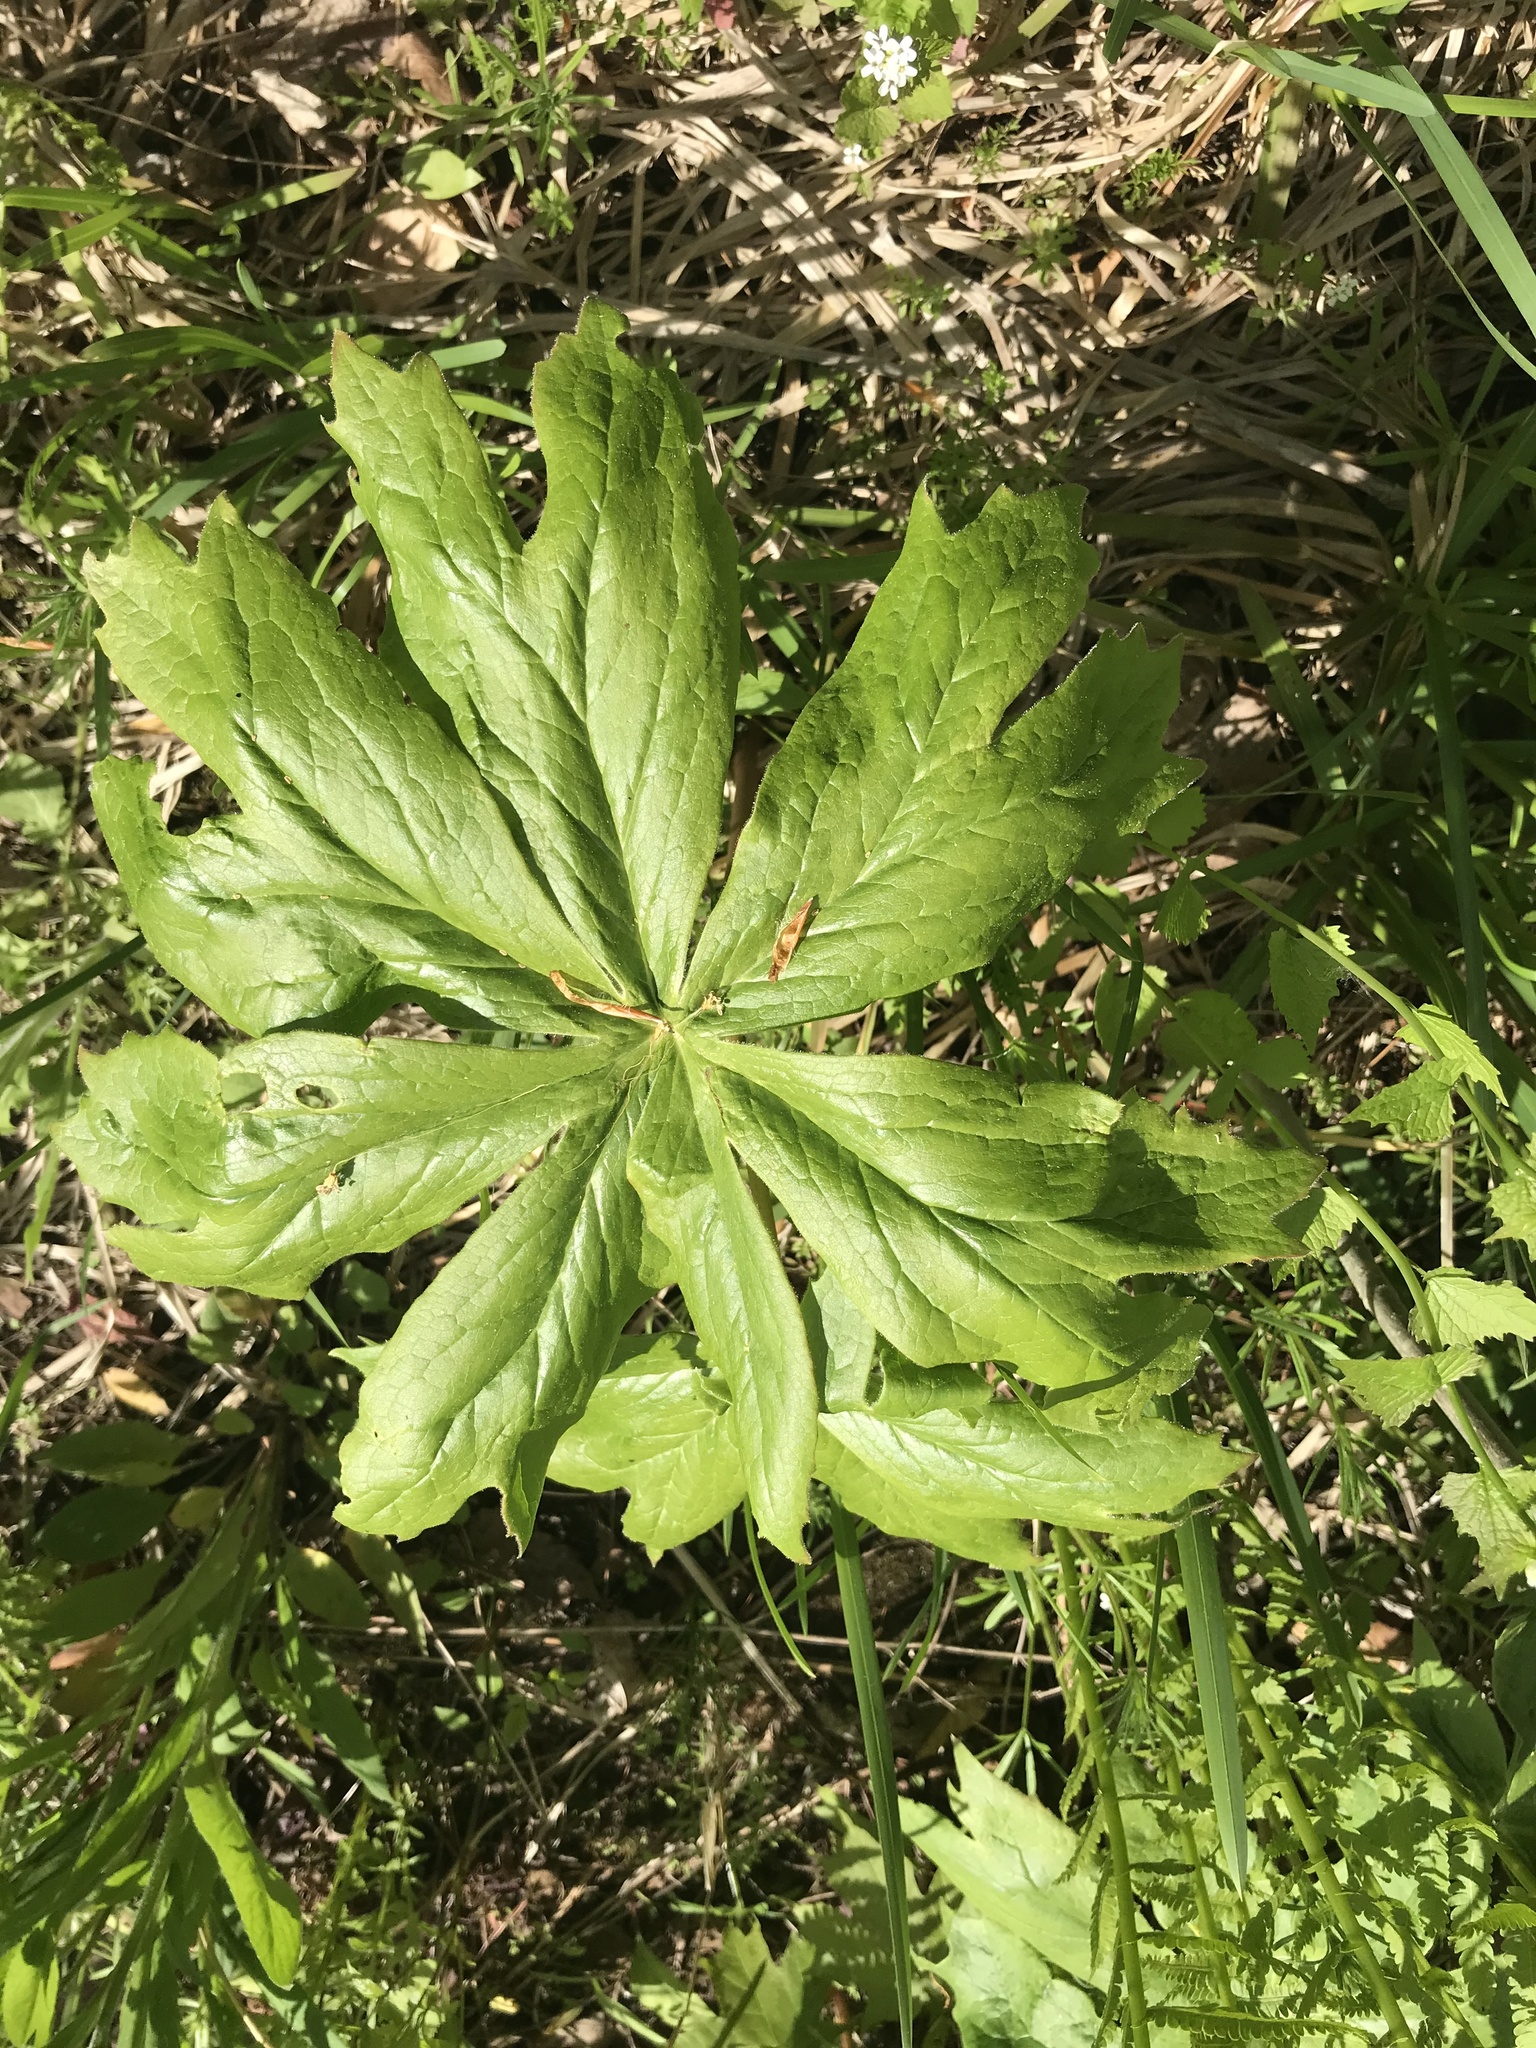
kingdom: Plantae
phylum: Tracheophyta
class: Magnoliopsida
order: Ranunculales
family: Berberidaceae
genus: Podophyllum
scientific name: Podophyllum peltatum
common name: Wild mandrake
